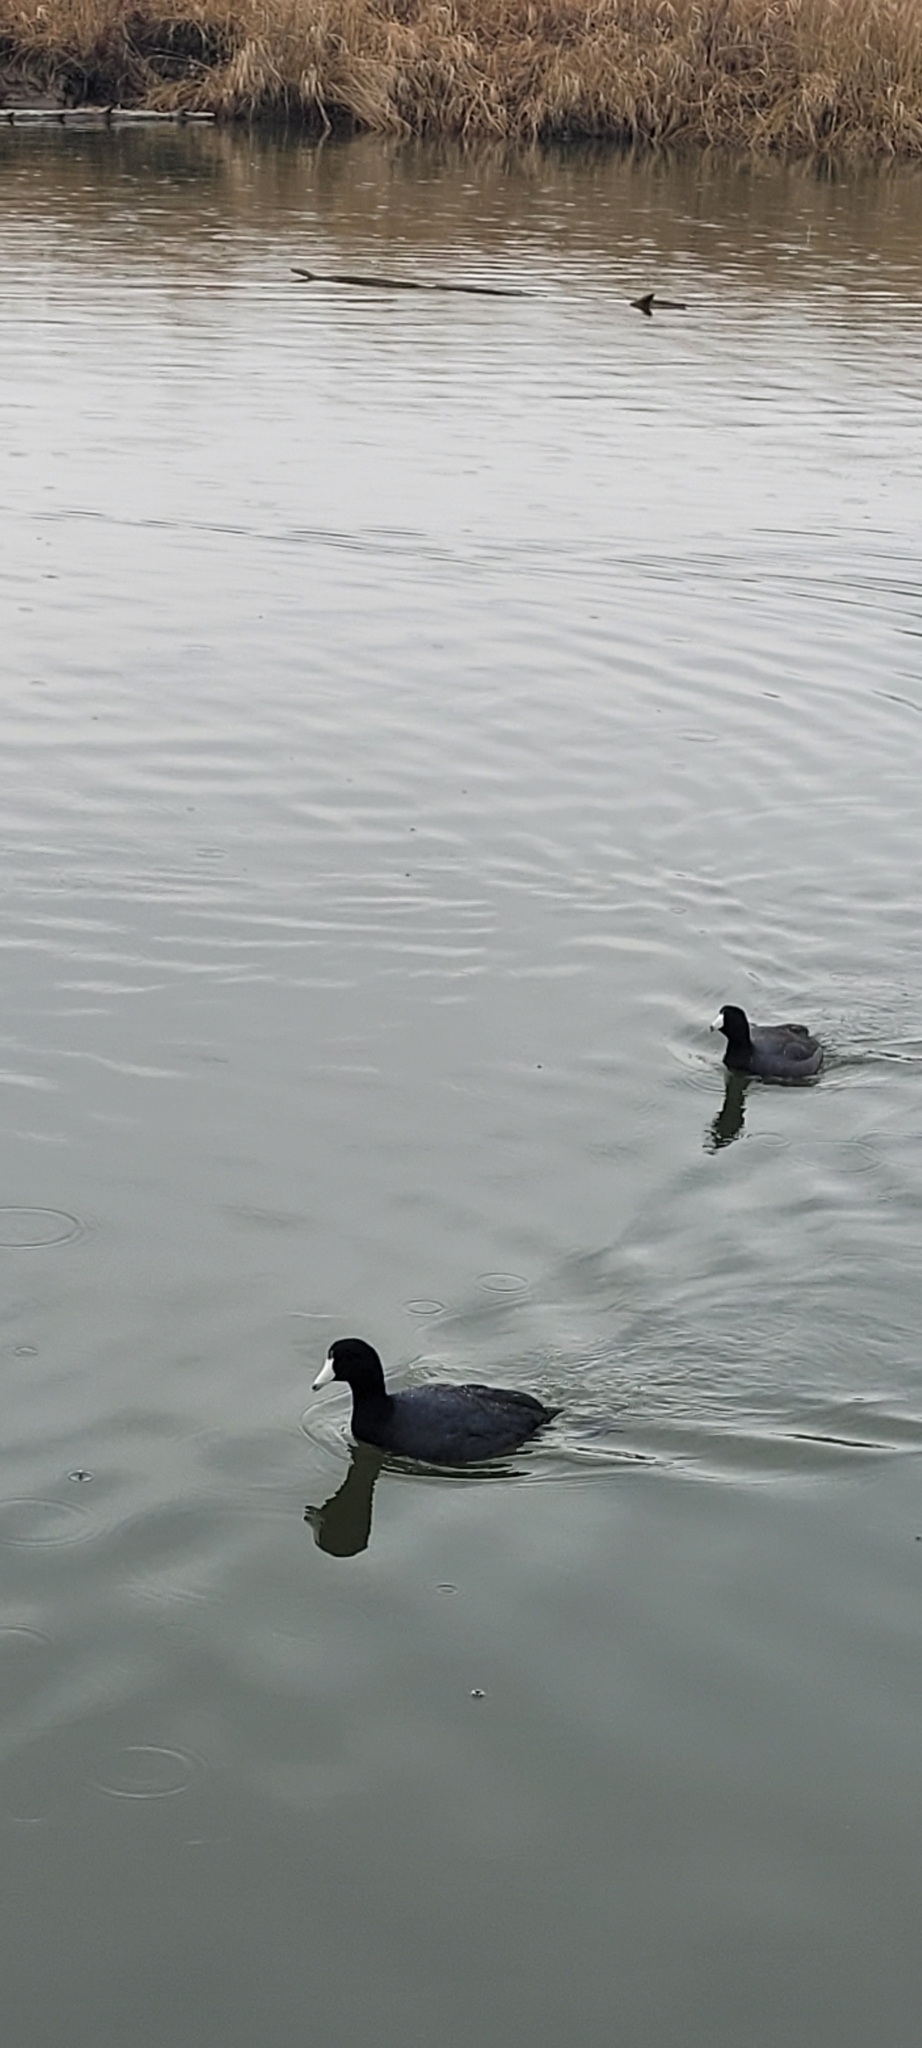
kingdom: Animalia
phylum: Chordata
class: Aves
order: Gruiformes
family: Rallidae
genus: Fulica
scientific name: Fulica americana
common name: American coot
